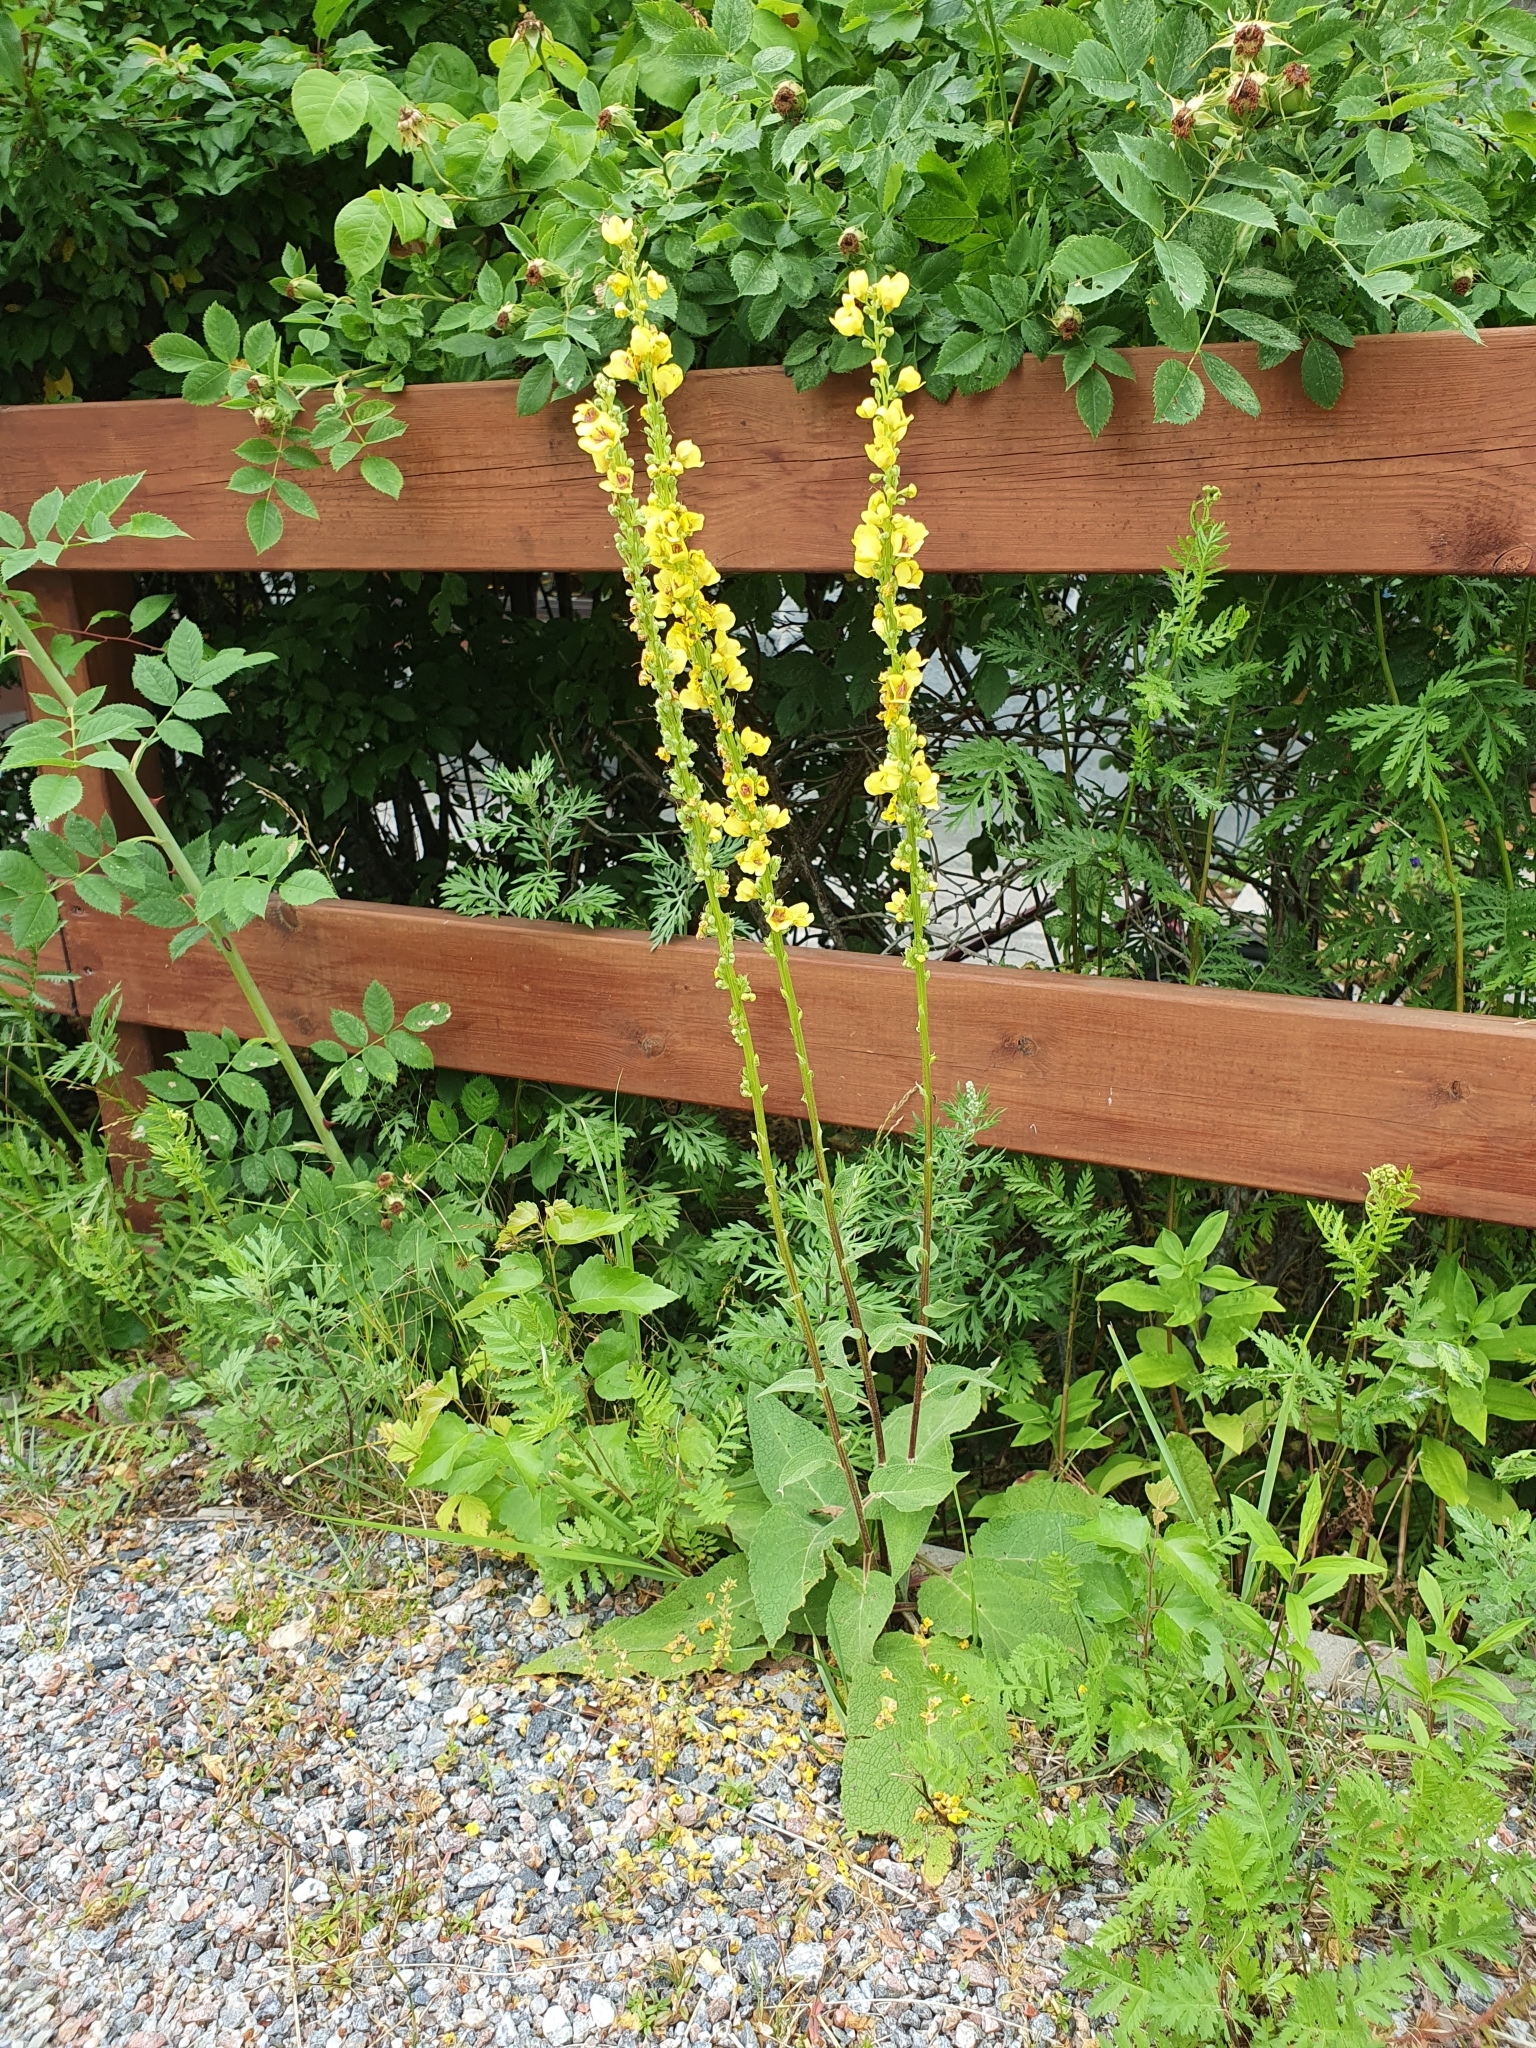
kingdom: Plantae
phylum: Tracheophyta
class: Magnoliopsida
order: Lamiales
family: Scrophulariaceae
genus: Verbascum
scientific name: Verbascum nigrum
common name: Dark mullein
